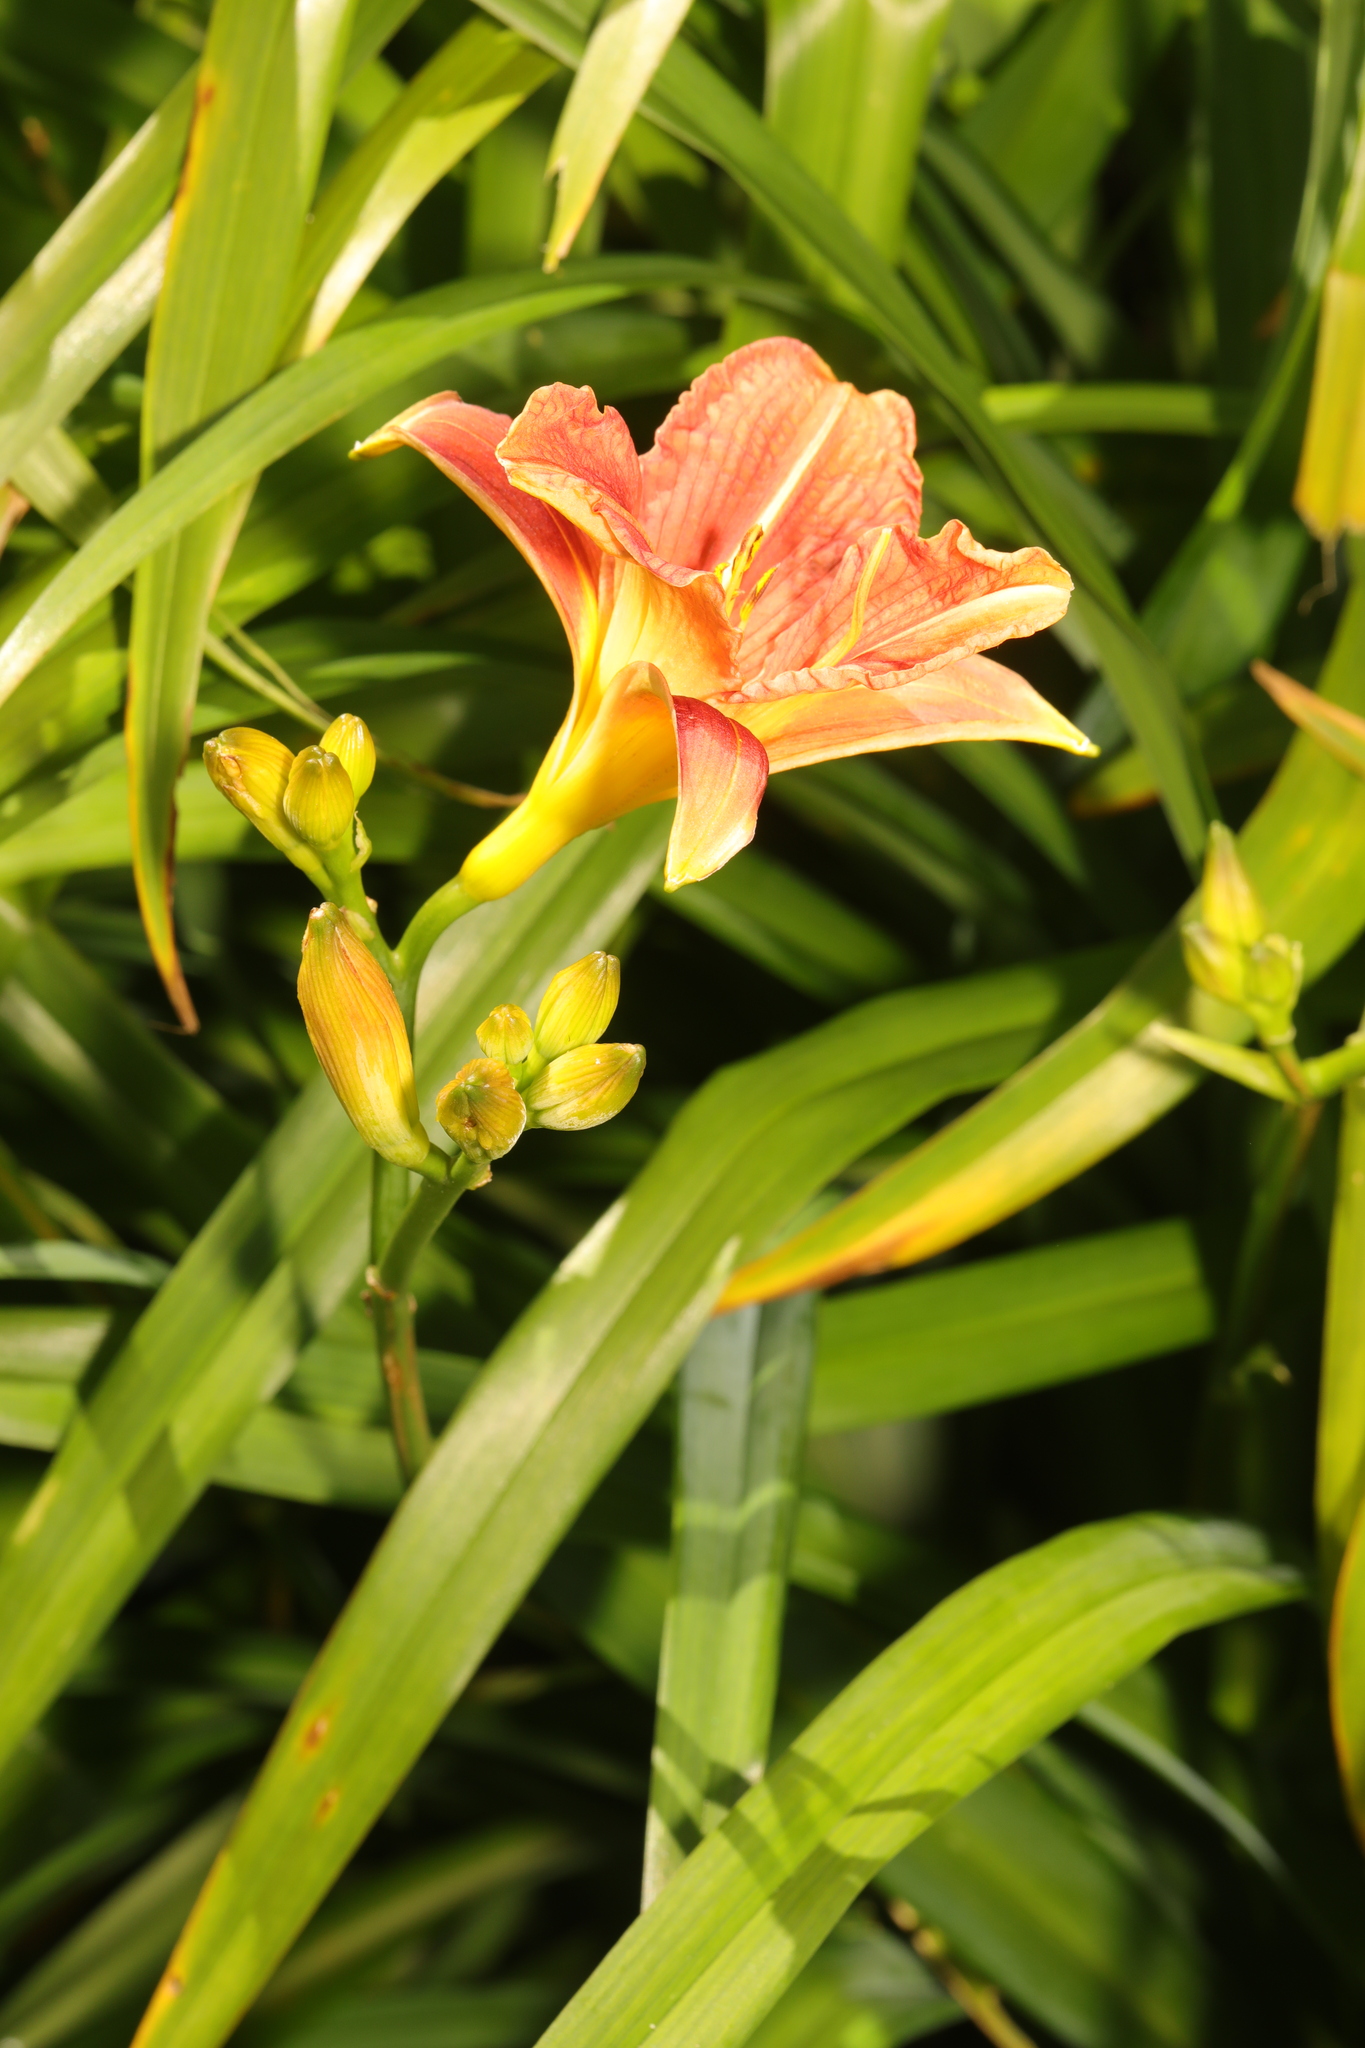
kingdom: Plantae
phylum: Tracheophyta
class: Liliopsida
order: Asparagales
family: Asphodelaceae
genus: Hemerocallis
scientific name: Hemerocallis fulva
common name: Orange day-lily
